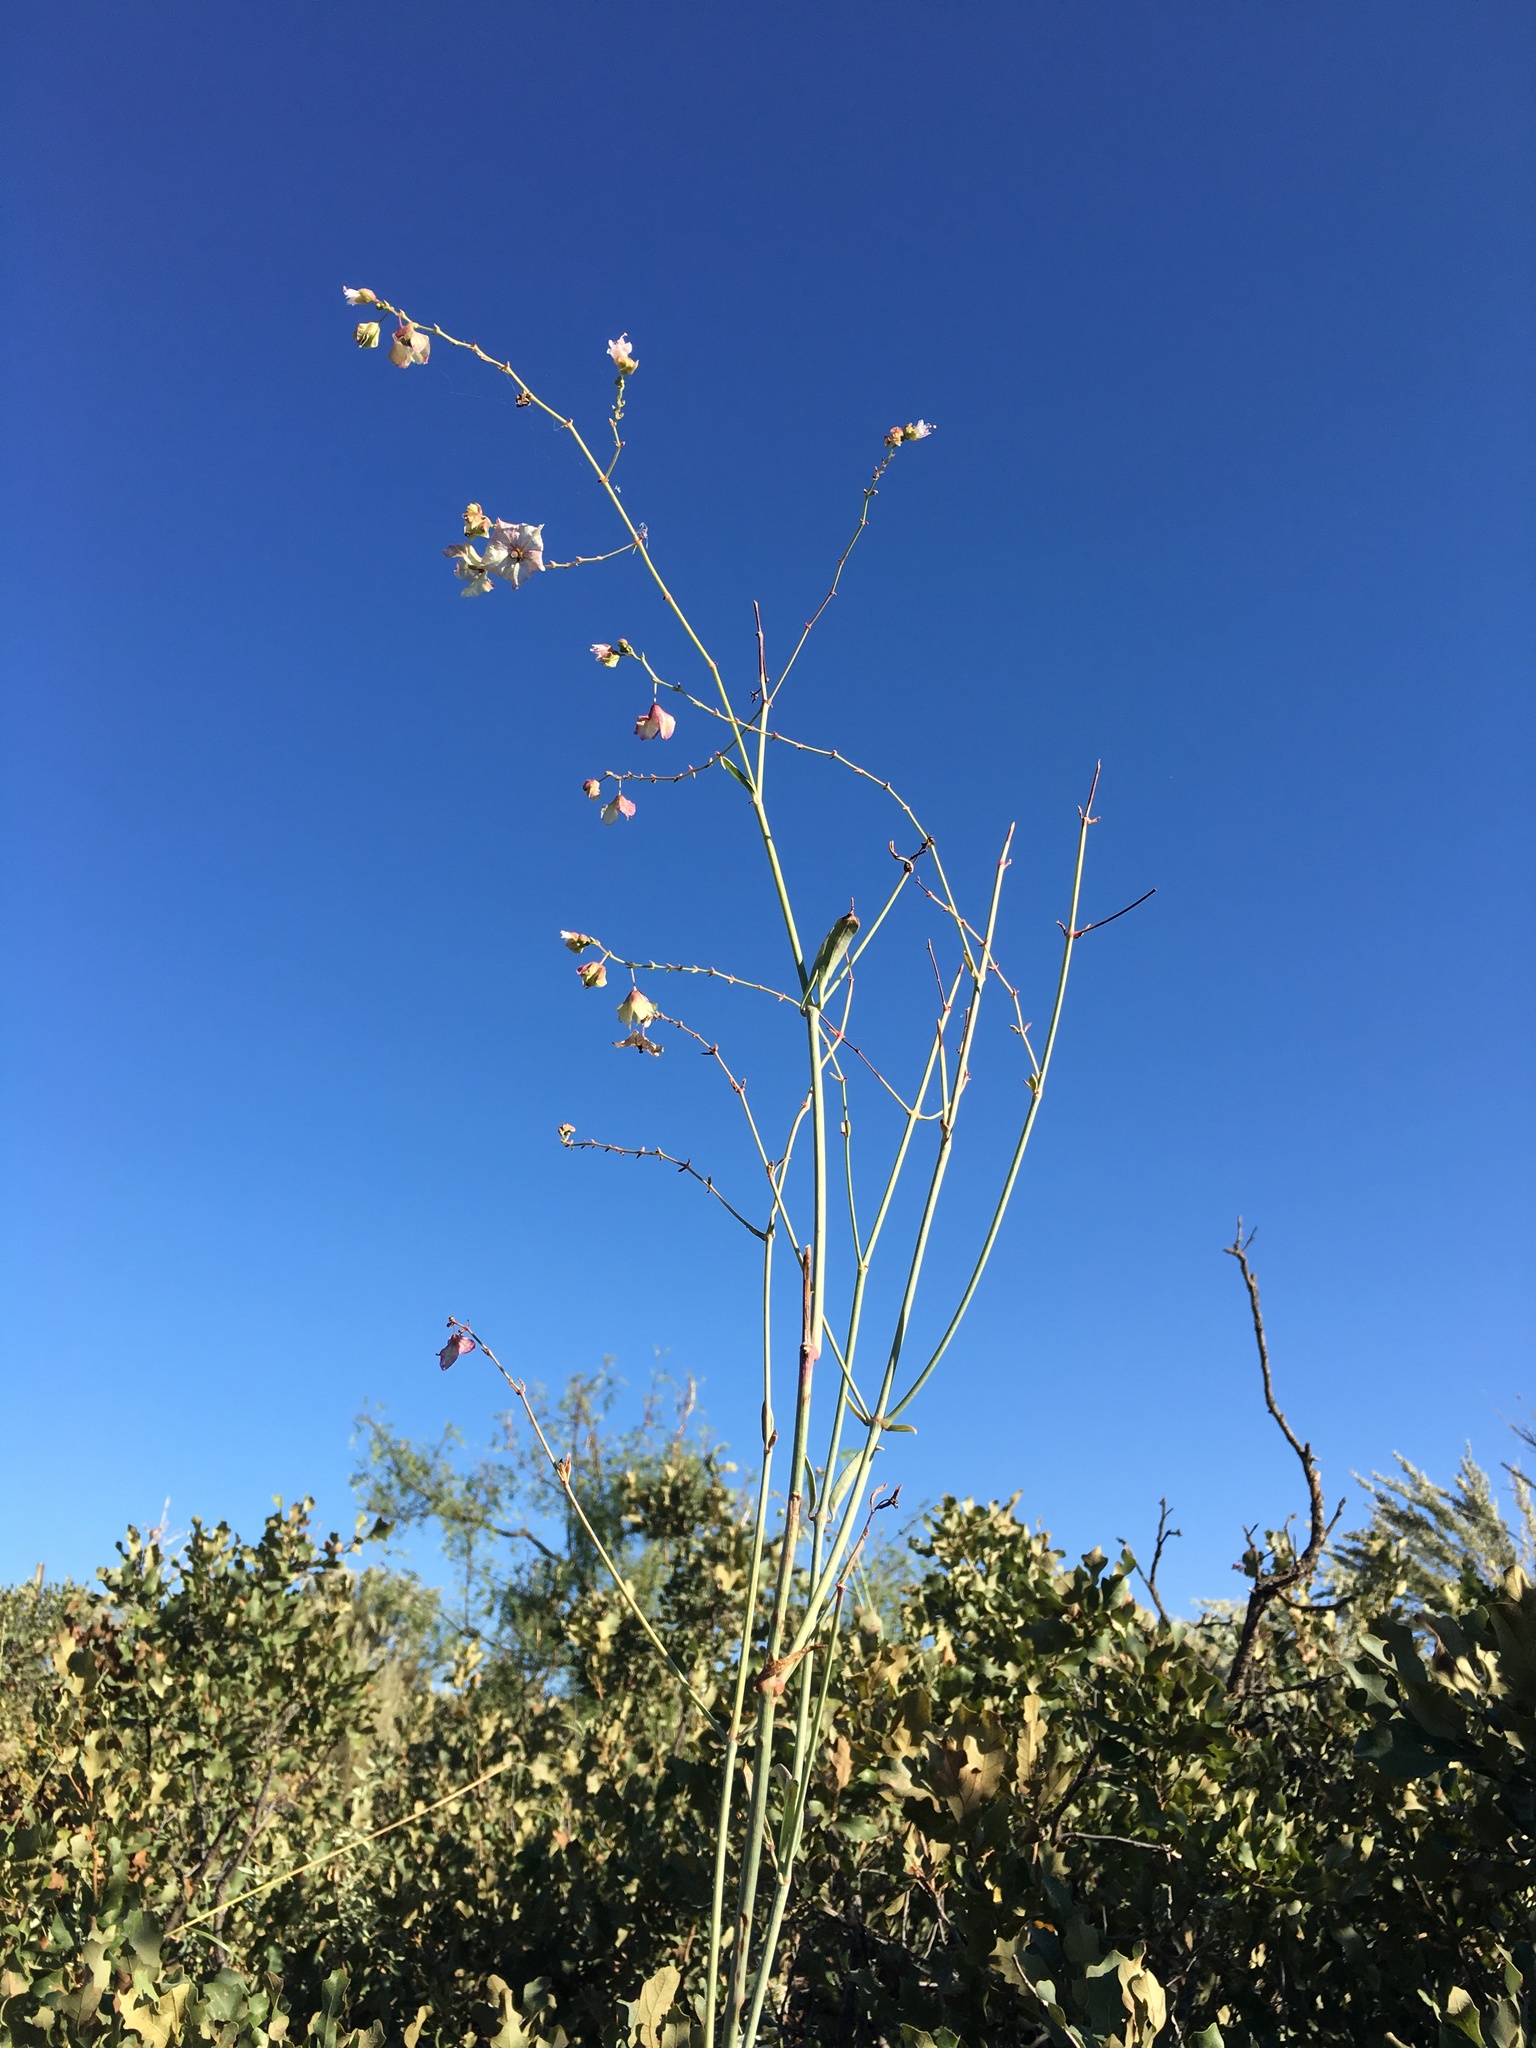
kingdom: Plantae
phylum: Tracheophyta
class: Magnoliopsida
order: Caryophyllales
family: Nyctaginaceae
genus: Mirabilis
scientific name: Mirabilis glabra
